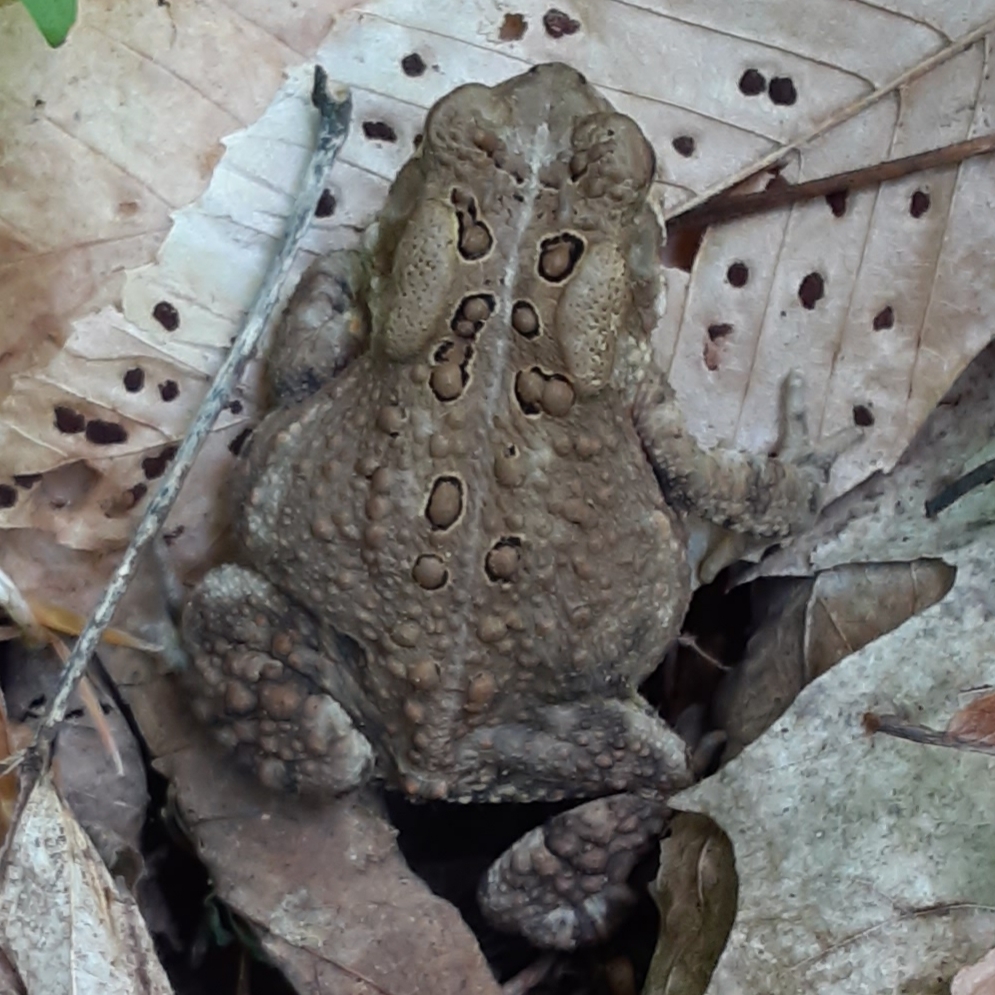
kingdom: Animalia
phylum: Chordata
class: Amphibia
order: Anura
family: Bufonidae
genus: Anaxyrus
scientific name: Anaxyrus americanus
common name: American toad
